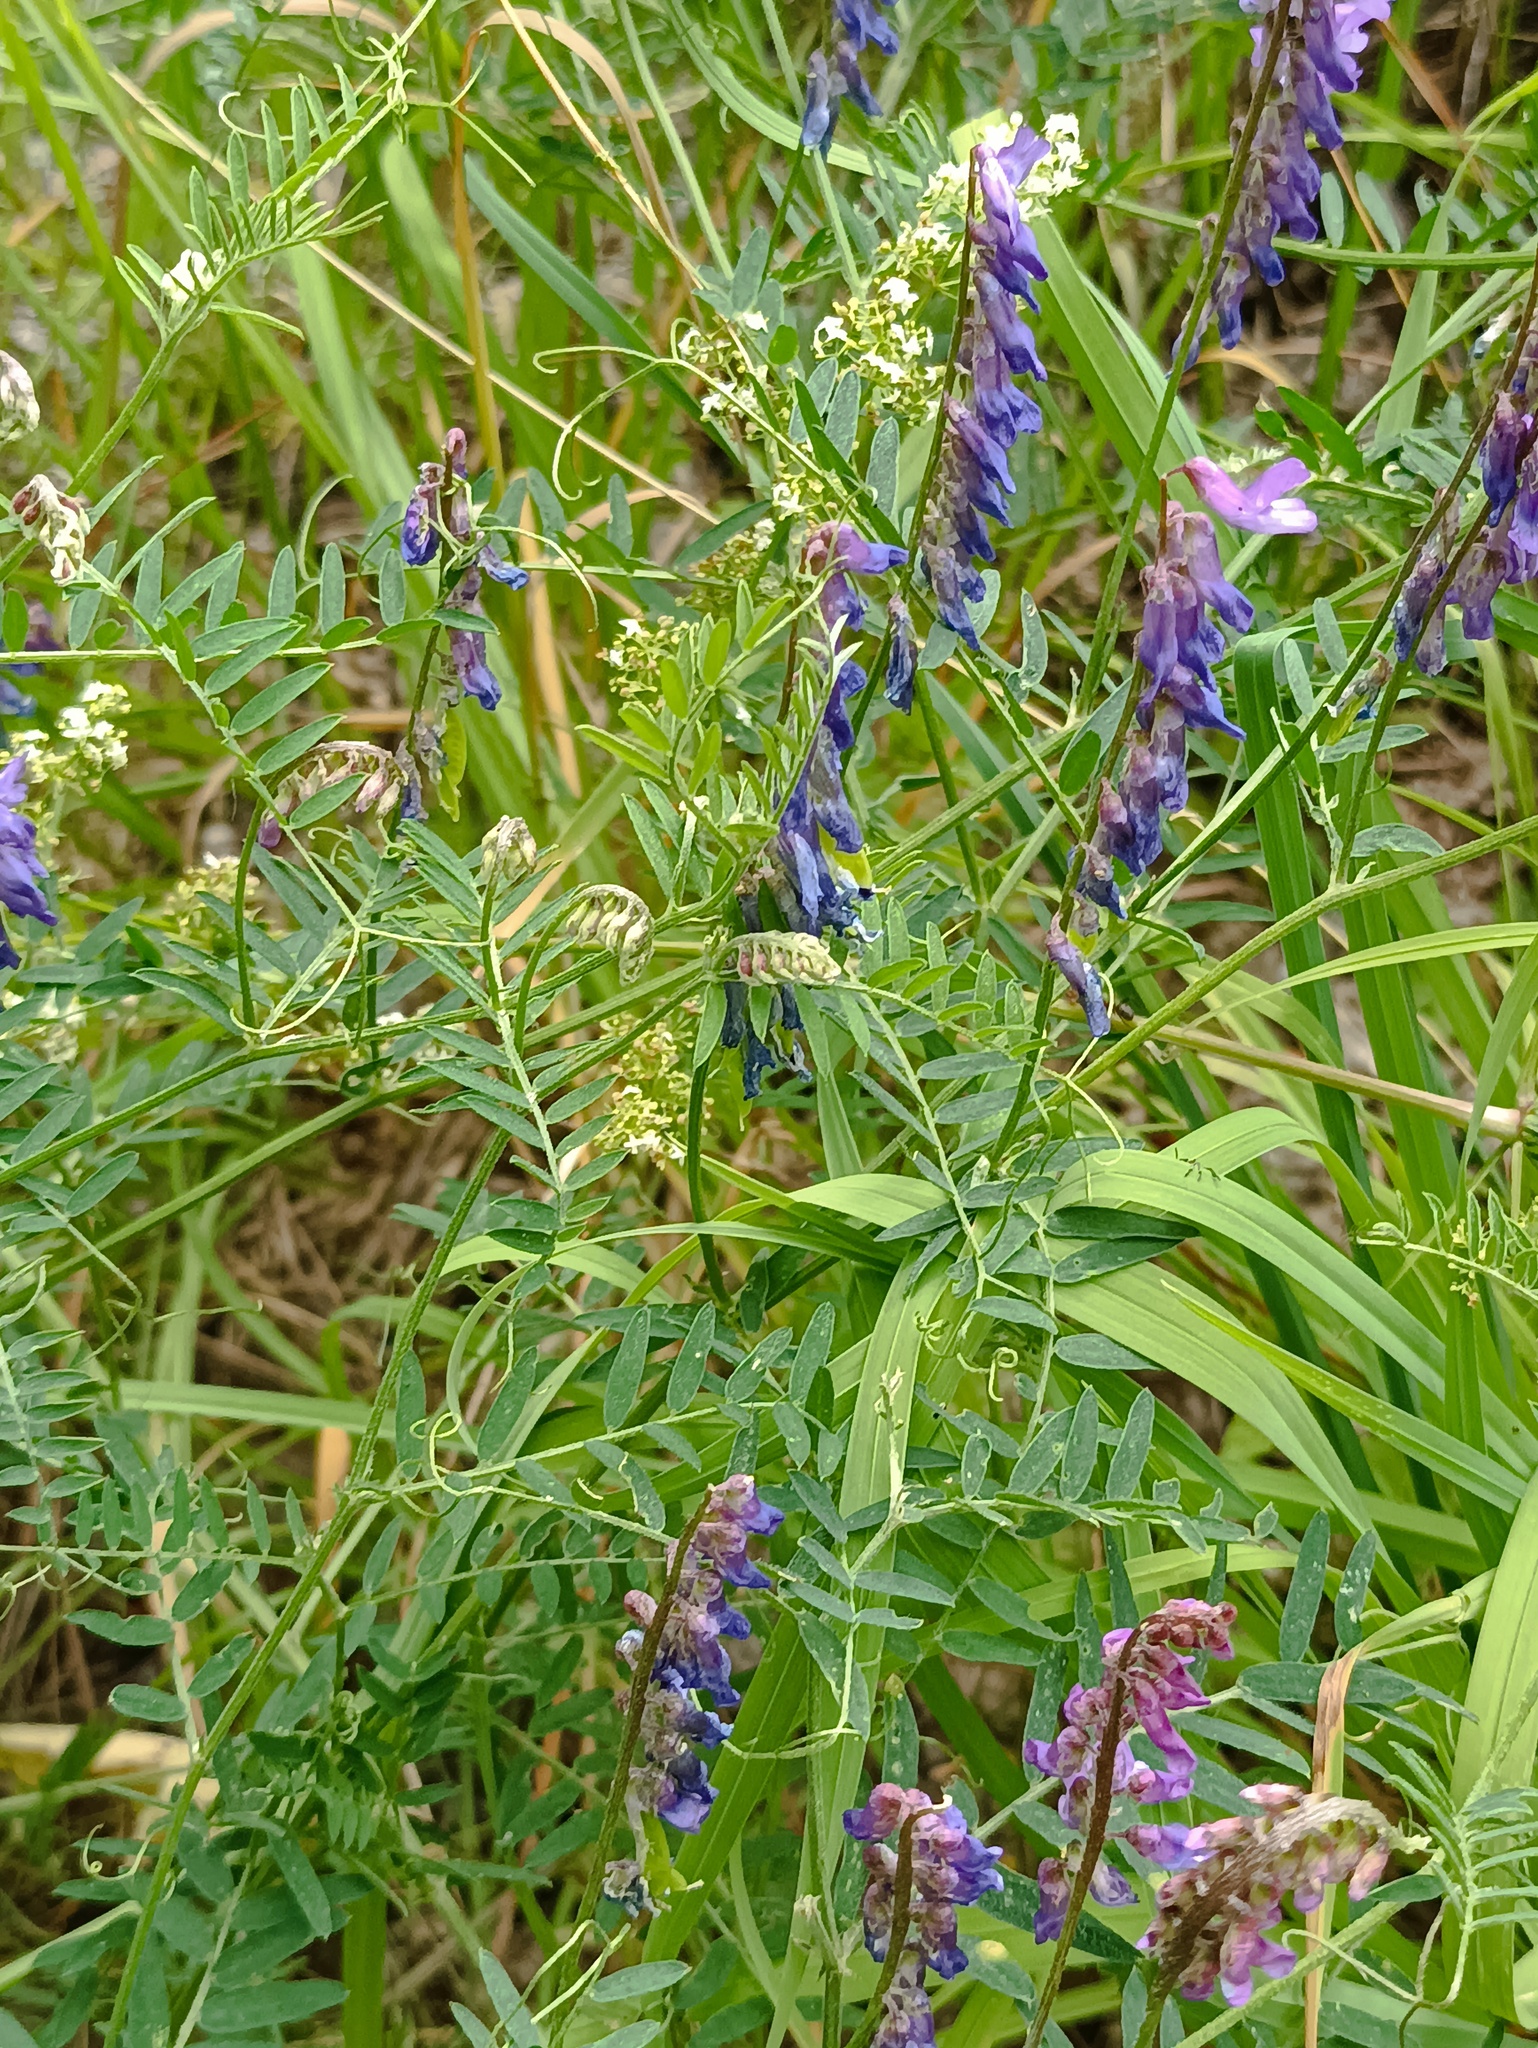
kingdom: Plantae
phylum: Tracheophyta
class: Magnoliopsida
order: Fabales
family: Fabaceae
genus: Vicia
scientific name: Vicia cracca
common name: Bird vetch
